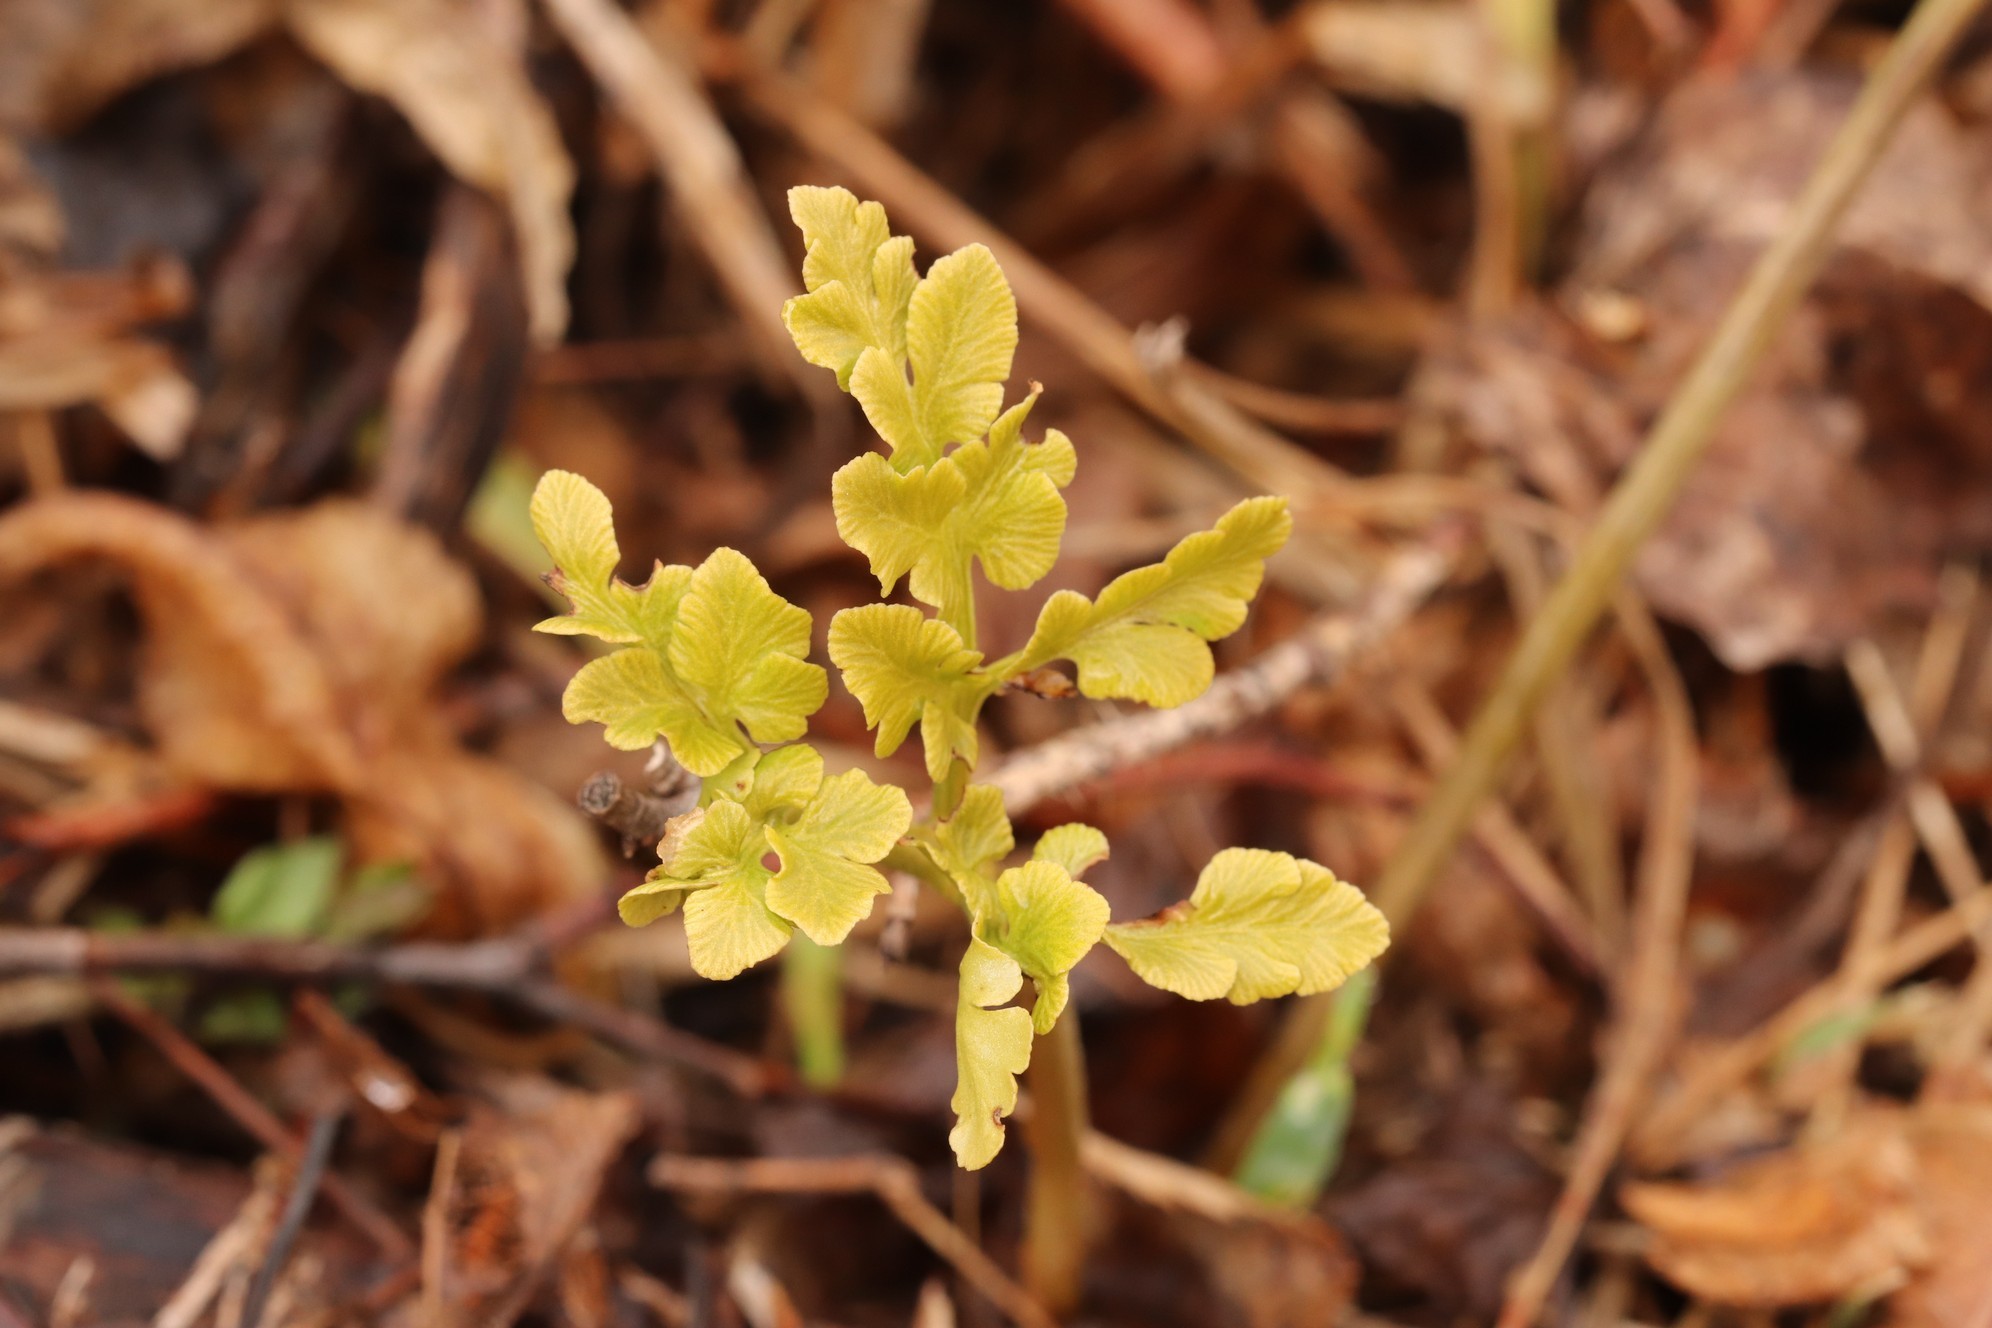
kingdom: Plantae
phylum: Tracheophyta
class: Polypodiopsida
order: Ophioglossales
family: Ophioglossaceae
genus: Sceptridium
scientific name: Sceptridium multifidum
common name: Leathery grape fern
